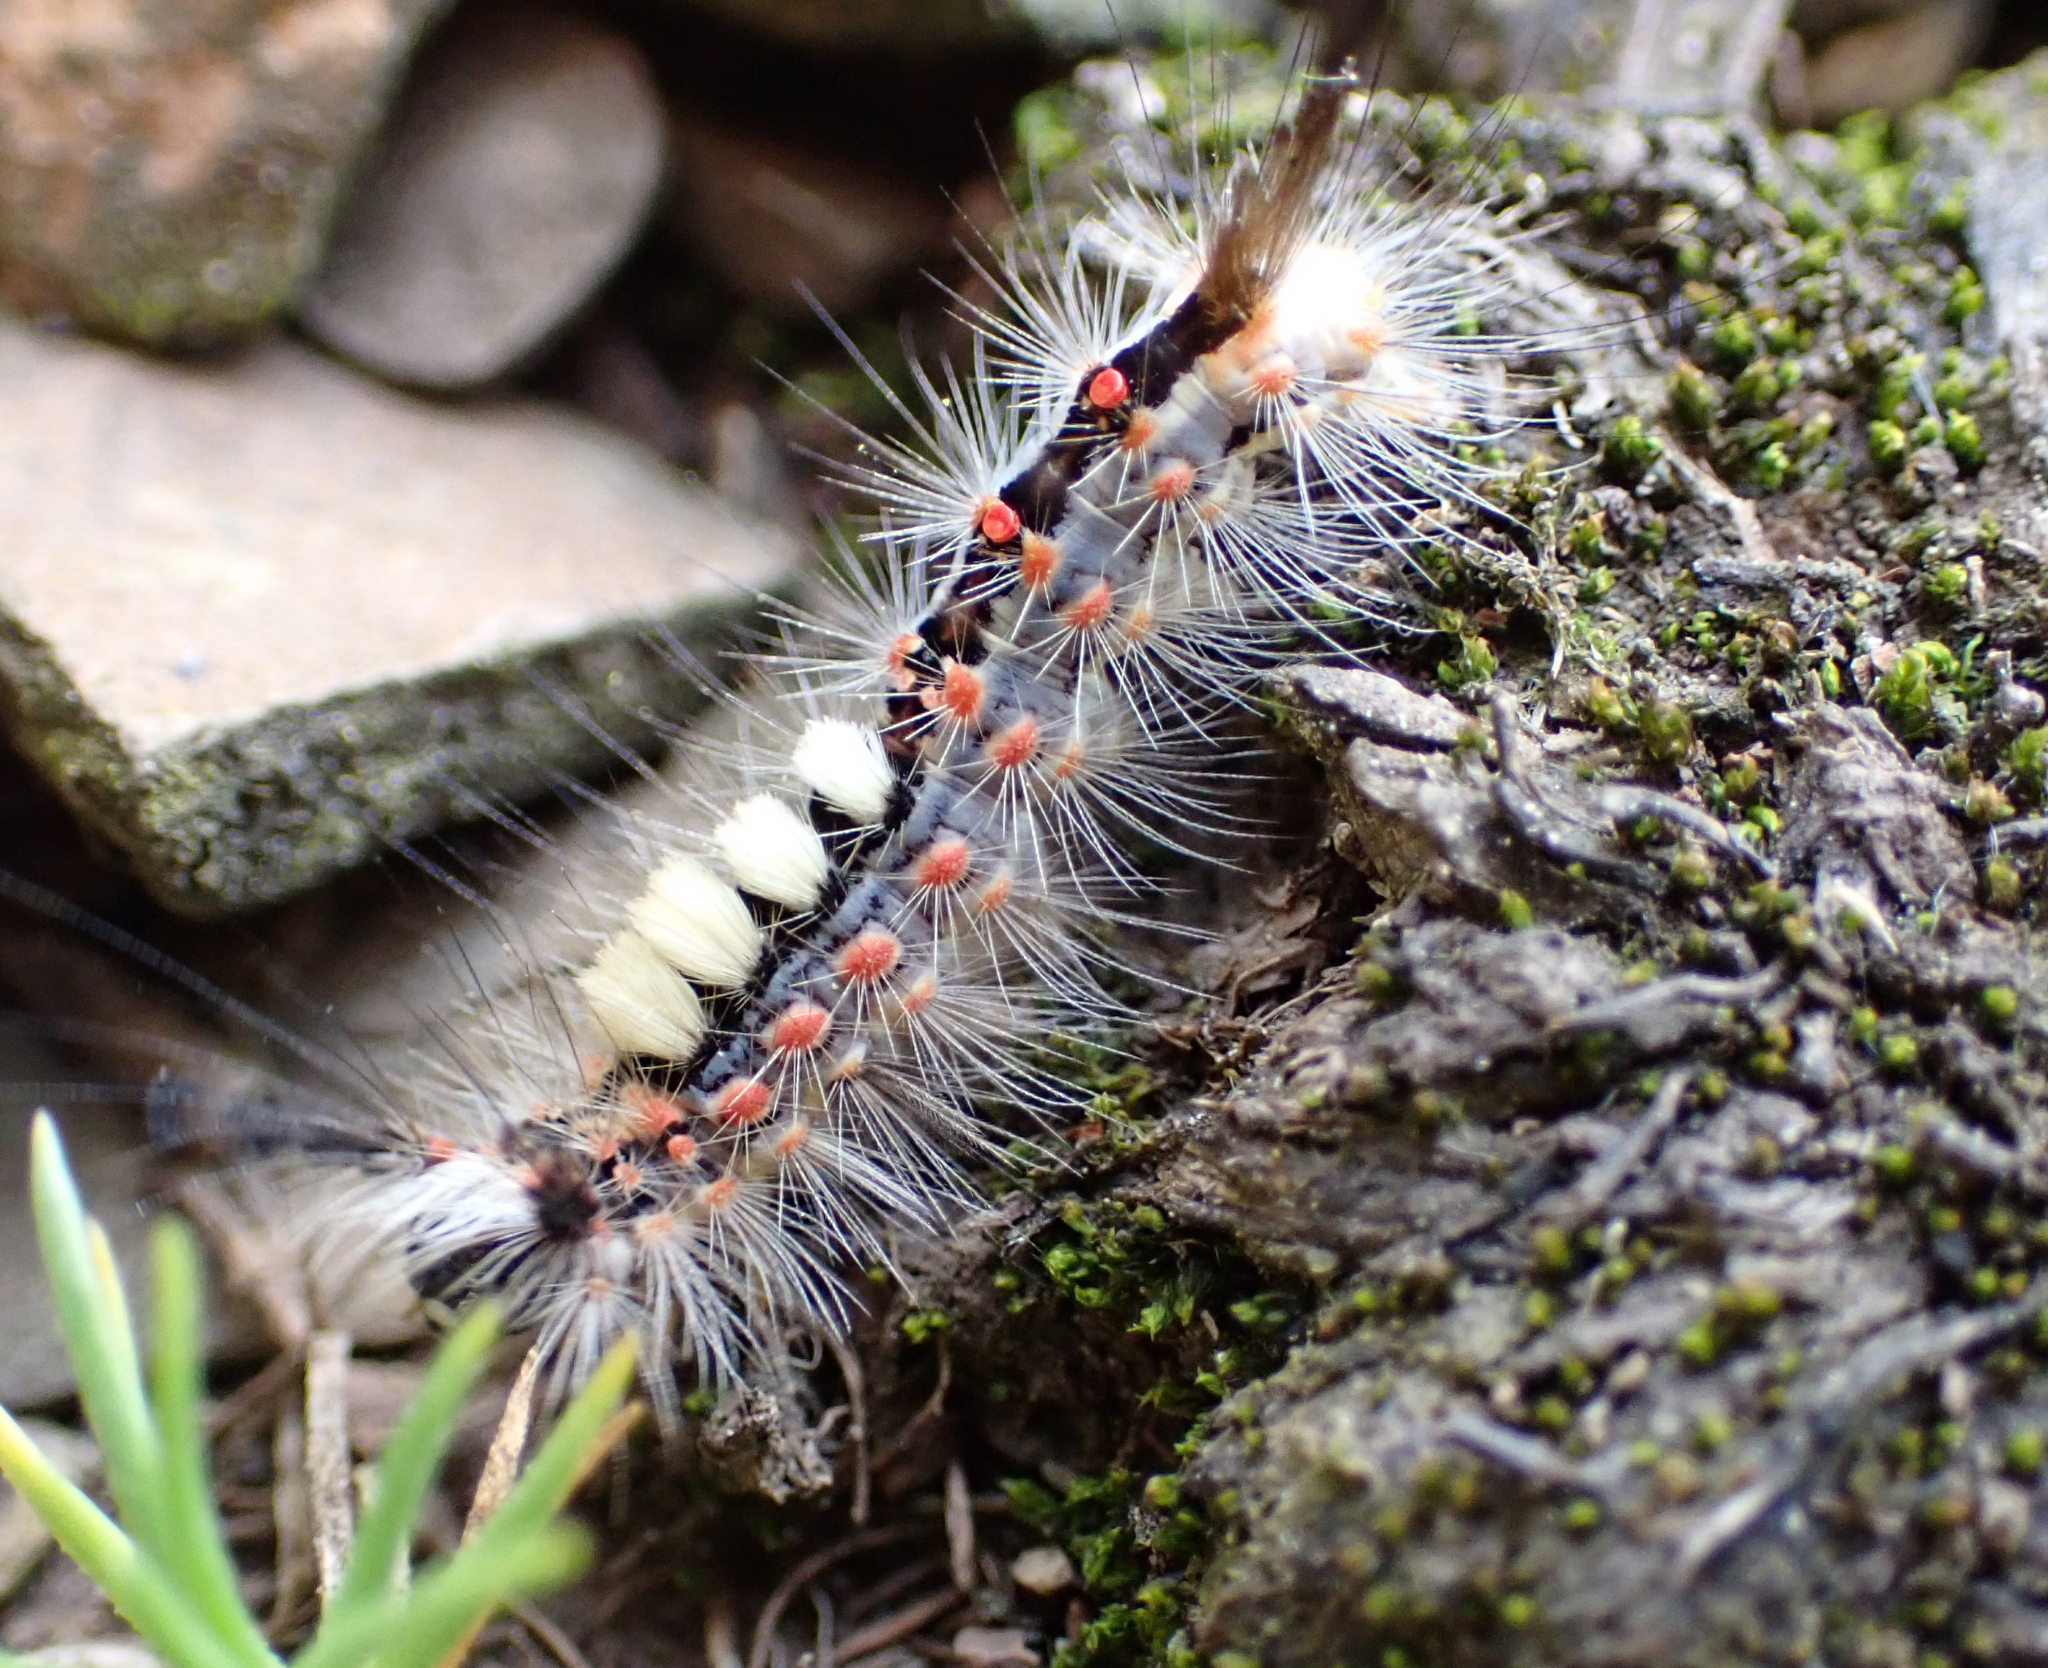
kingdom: Animalia
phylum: Arthropoda
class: Insecta
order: Lepidoptera
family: Erebidae
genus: Orgyia
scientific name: Orgyia antiqua
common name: Vapourer
